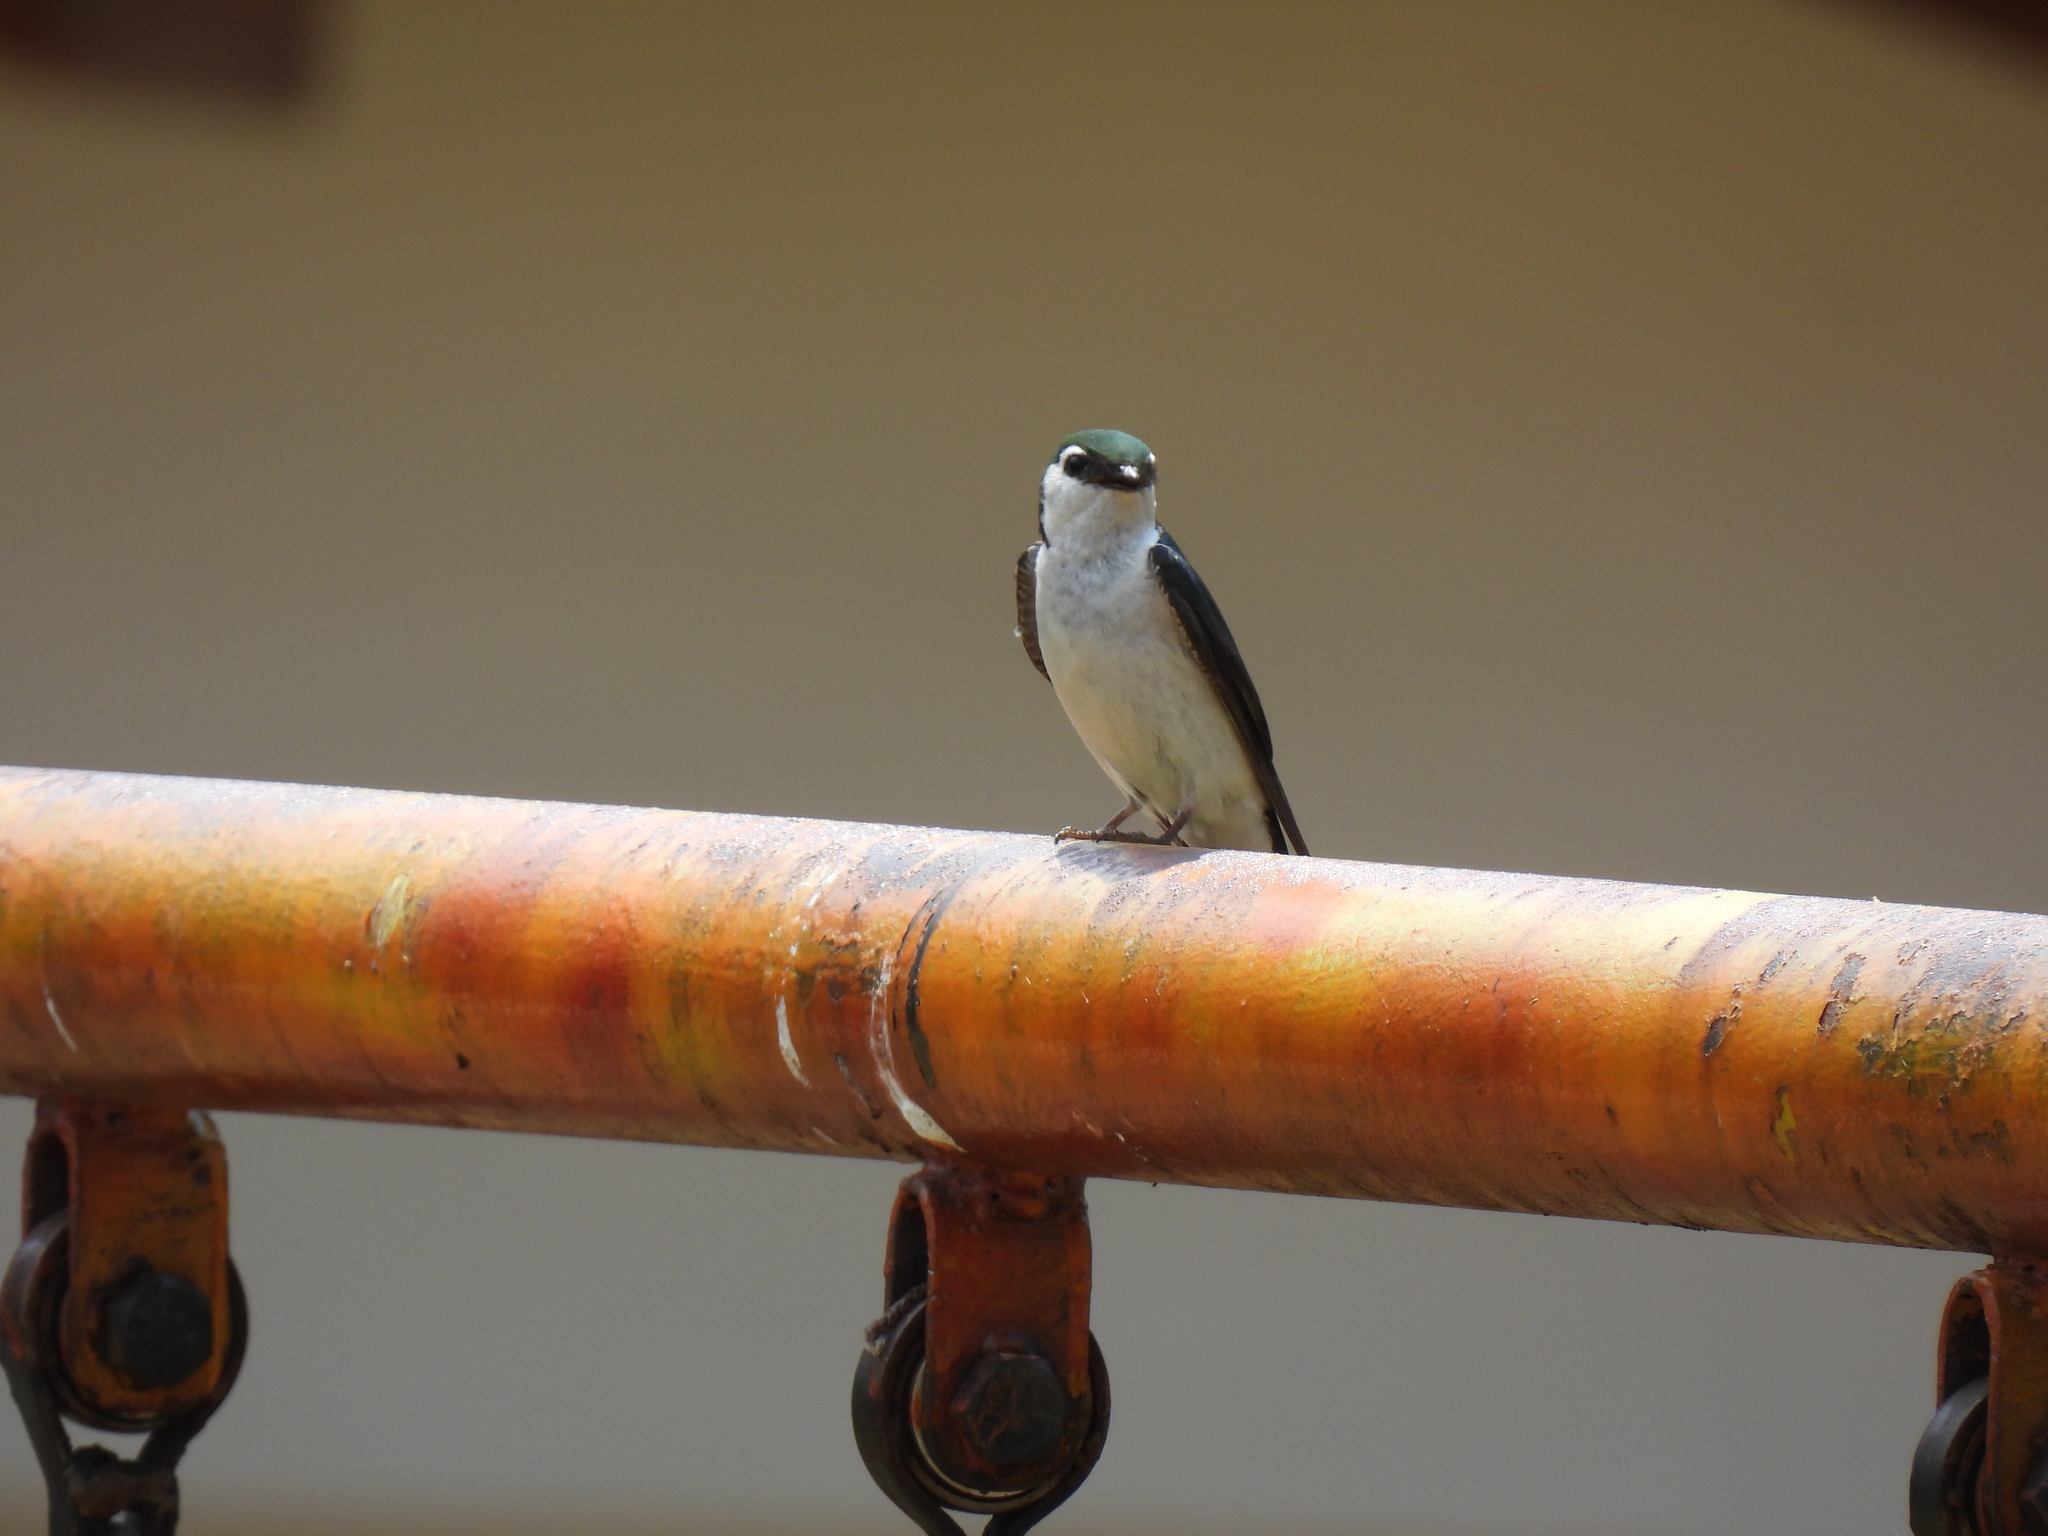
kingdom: Animalia
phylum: Chordata
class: Aves
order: Passeriformes
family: Hirundinidae
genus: Tachycineta
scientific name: Tachycineta thalassina
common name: Violet-green swallow
